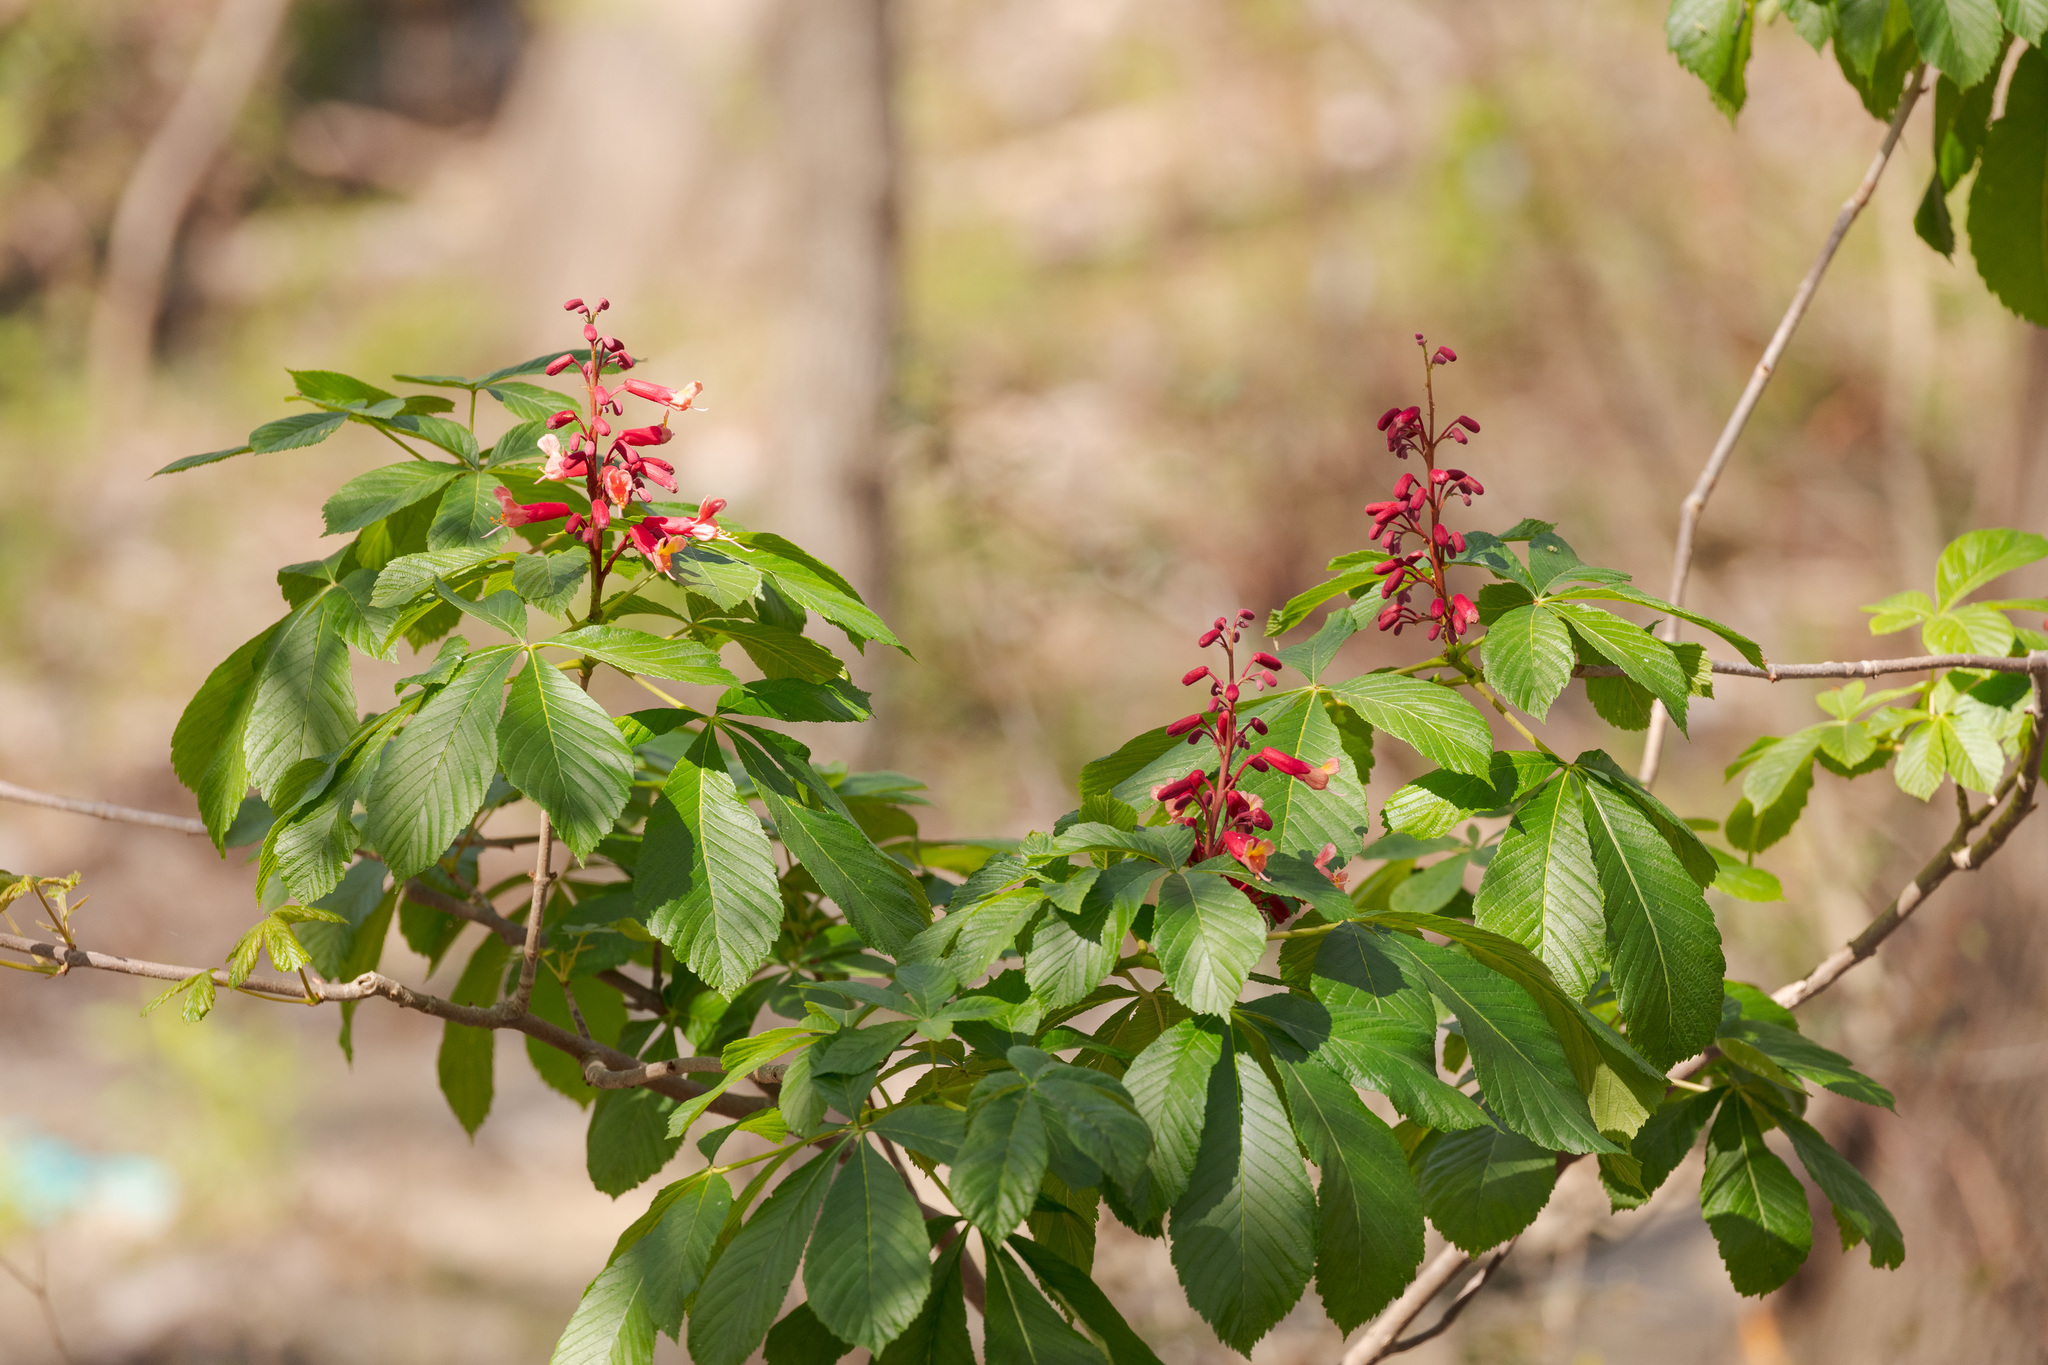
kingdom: Plantae
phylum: Tracheophyta
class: Magnoliopsida
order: Sapindales
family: Sapindaceae
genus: Aesculus
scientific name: Aesculus pavia
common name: Red buckeye
